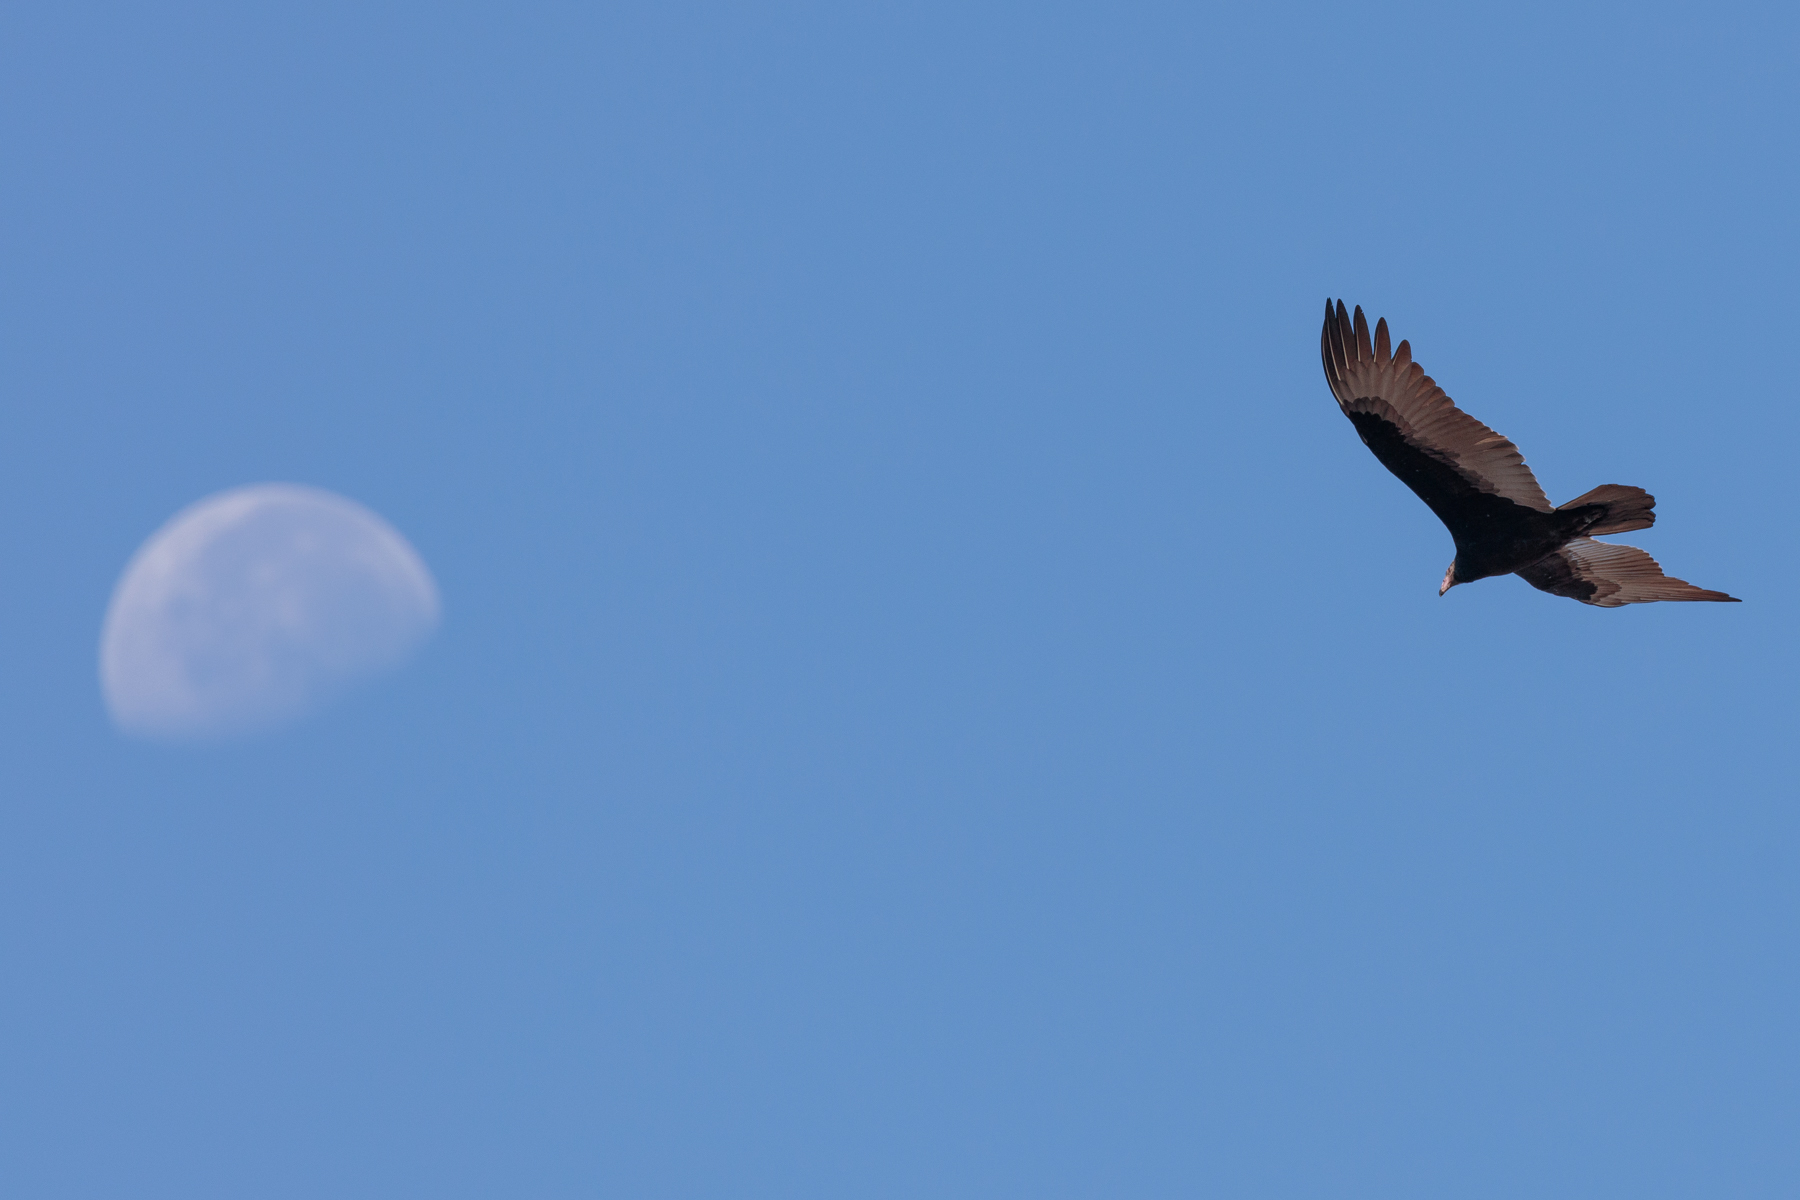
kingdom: Animalia
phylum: Chordata
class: Aves
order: Accipitriformes
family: Cathartidae
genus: Cathartes
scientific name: Cathartes aura
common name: Turkey vulture
